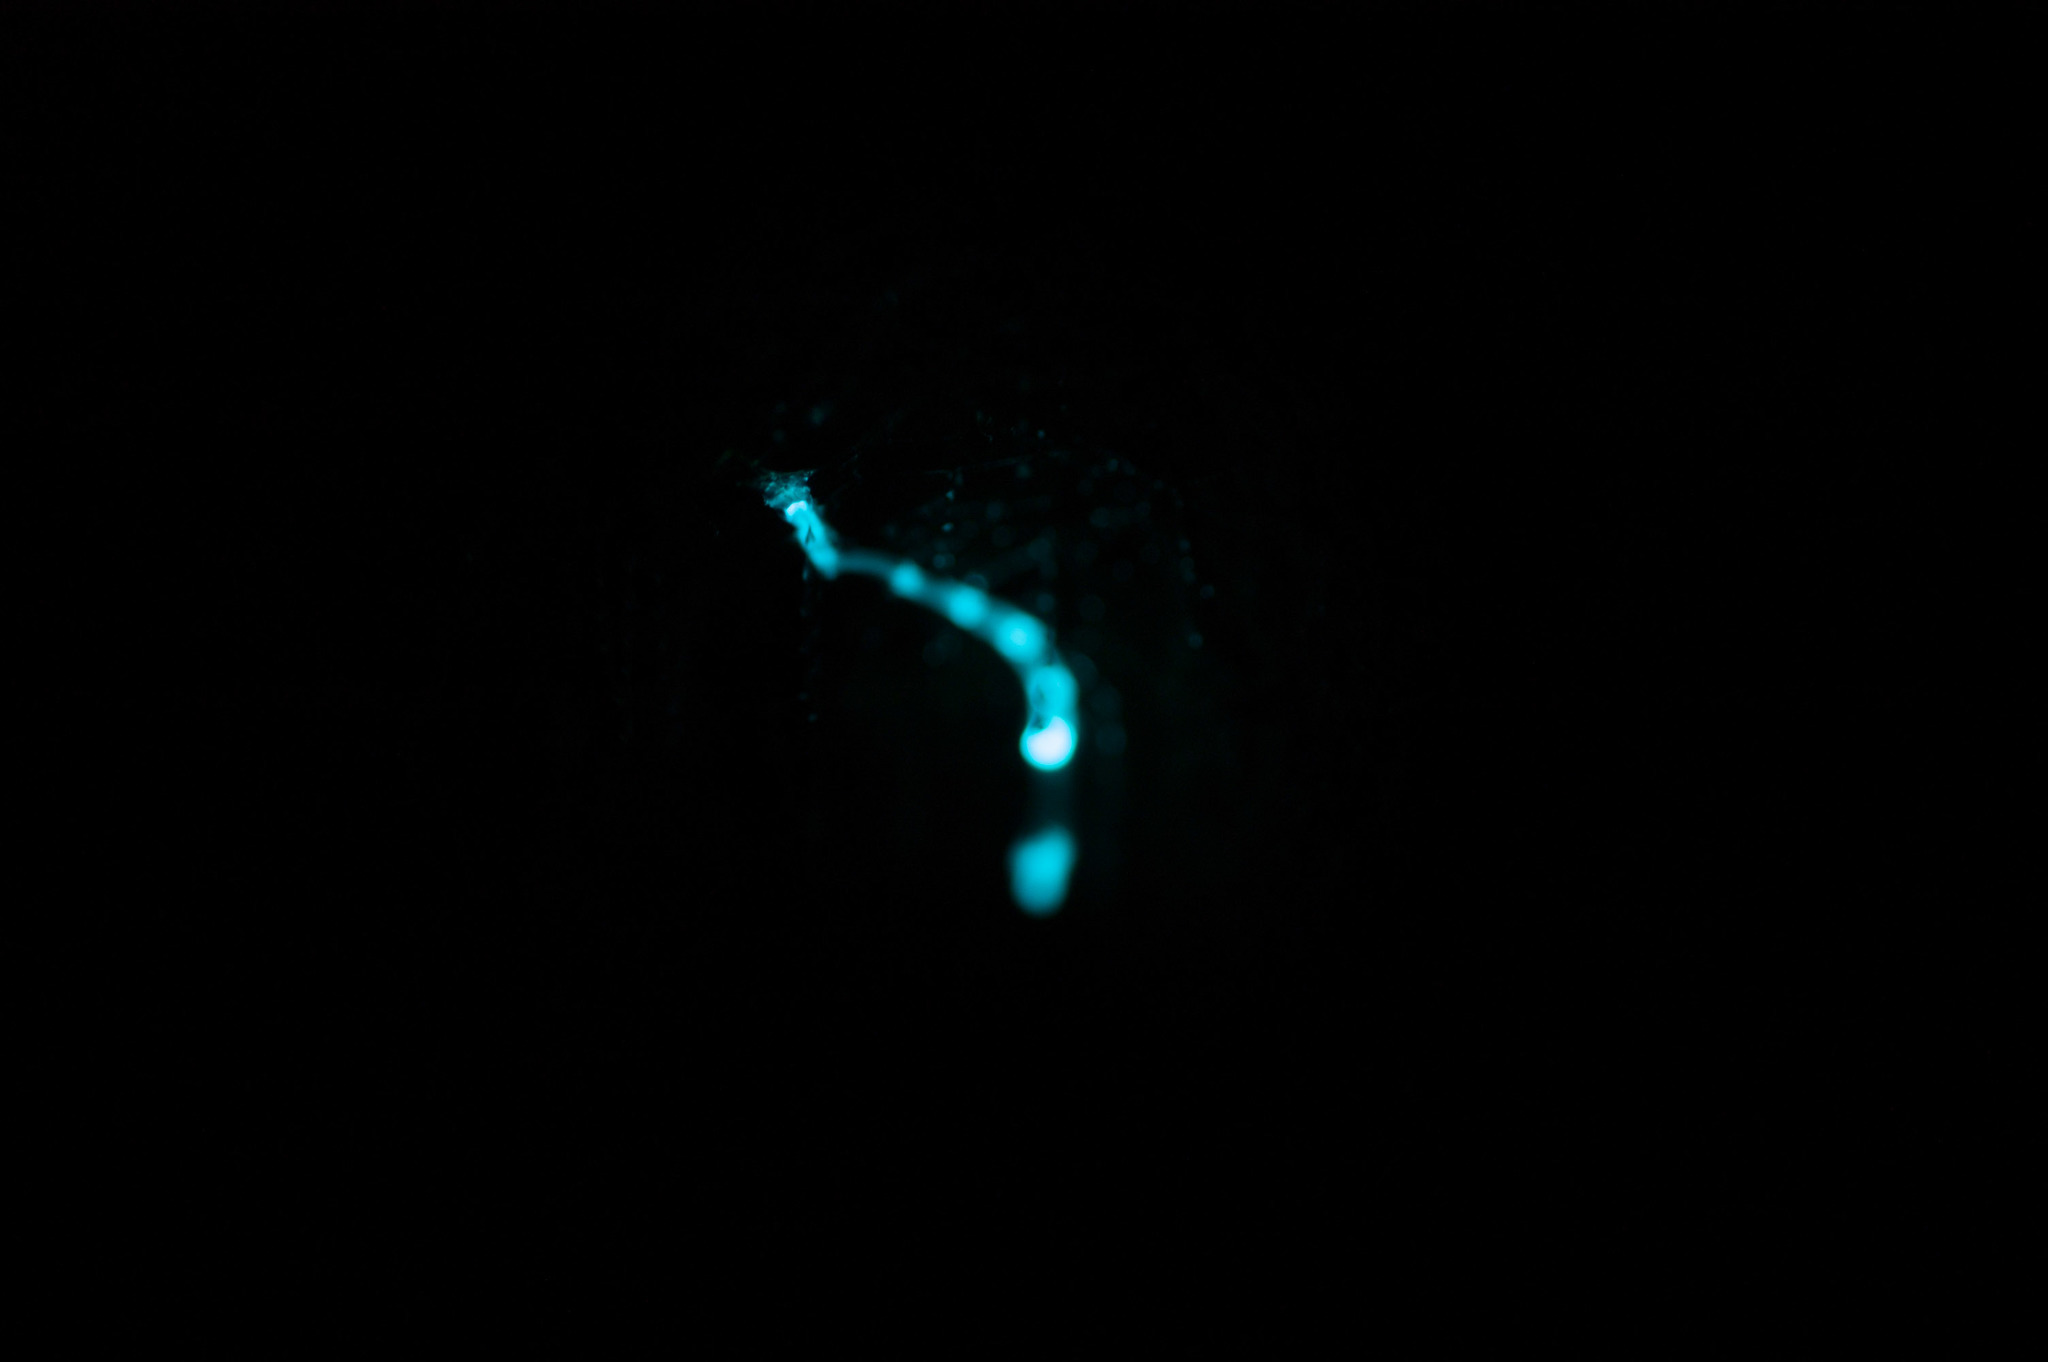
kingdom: Animalia
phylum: Arthropoda
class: Insecta
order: Diptera
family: Keroplatidae
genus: Arachnocampa
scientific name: Arachnocampa richardsae
